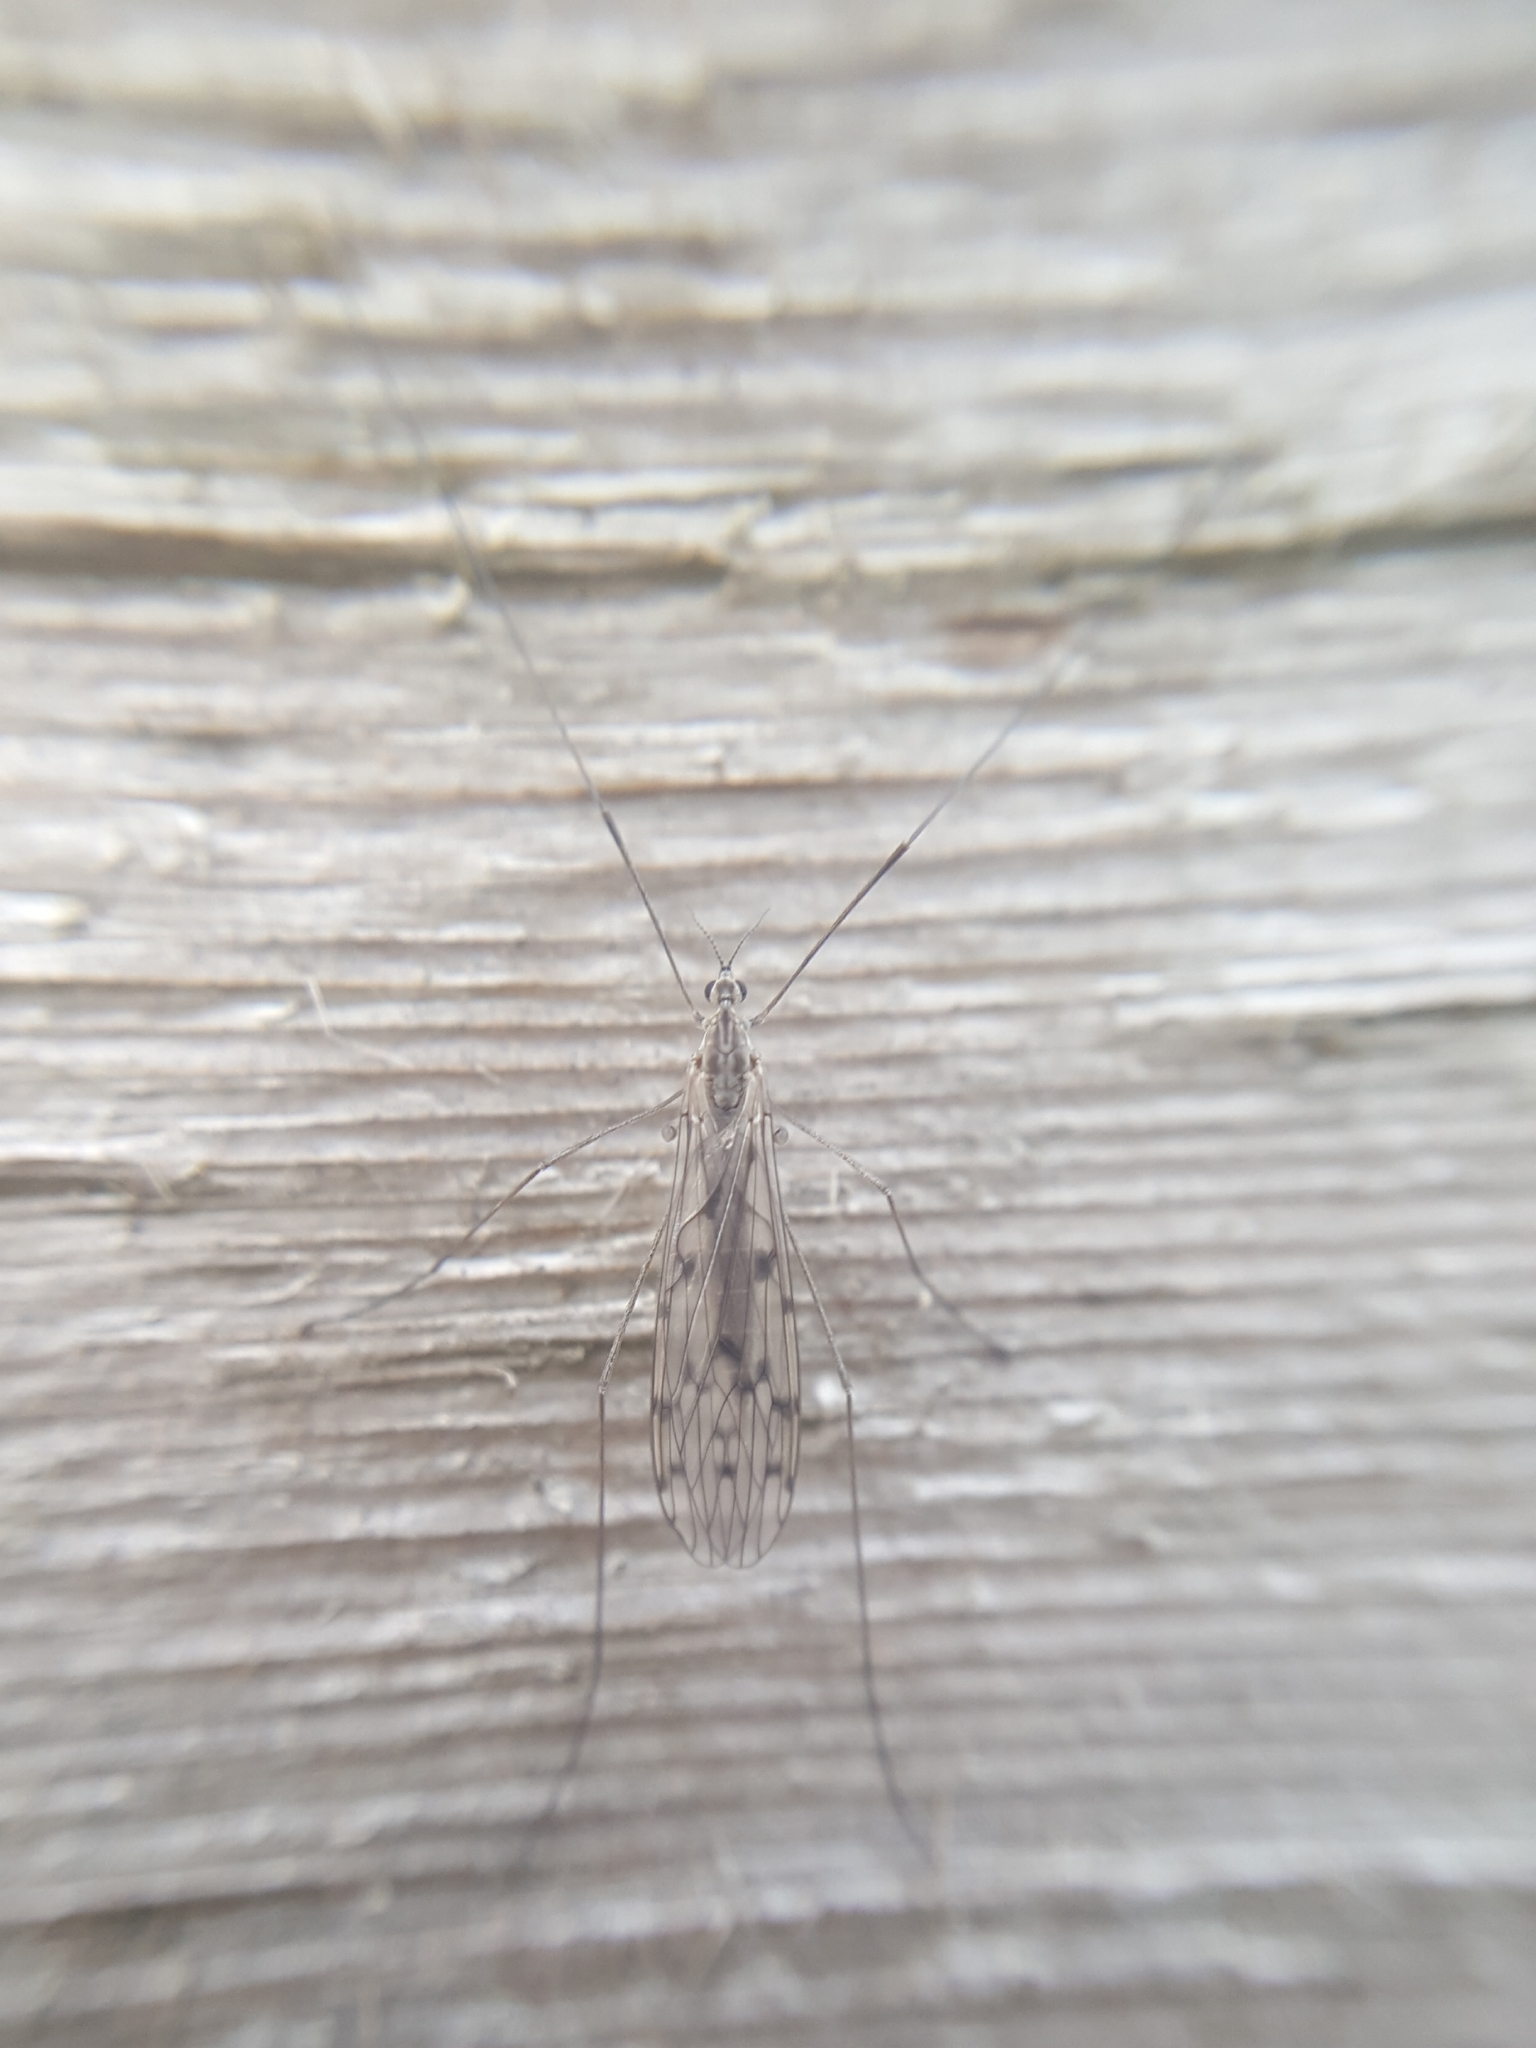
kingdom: Animalia
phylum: Arthropoda
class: Insecta
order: Diptera
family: Limoniidae
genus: Symplecta
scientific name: Symplecta
